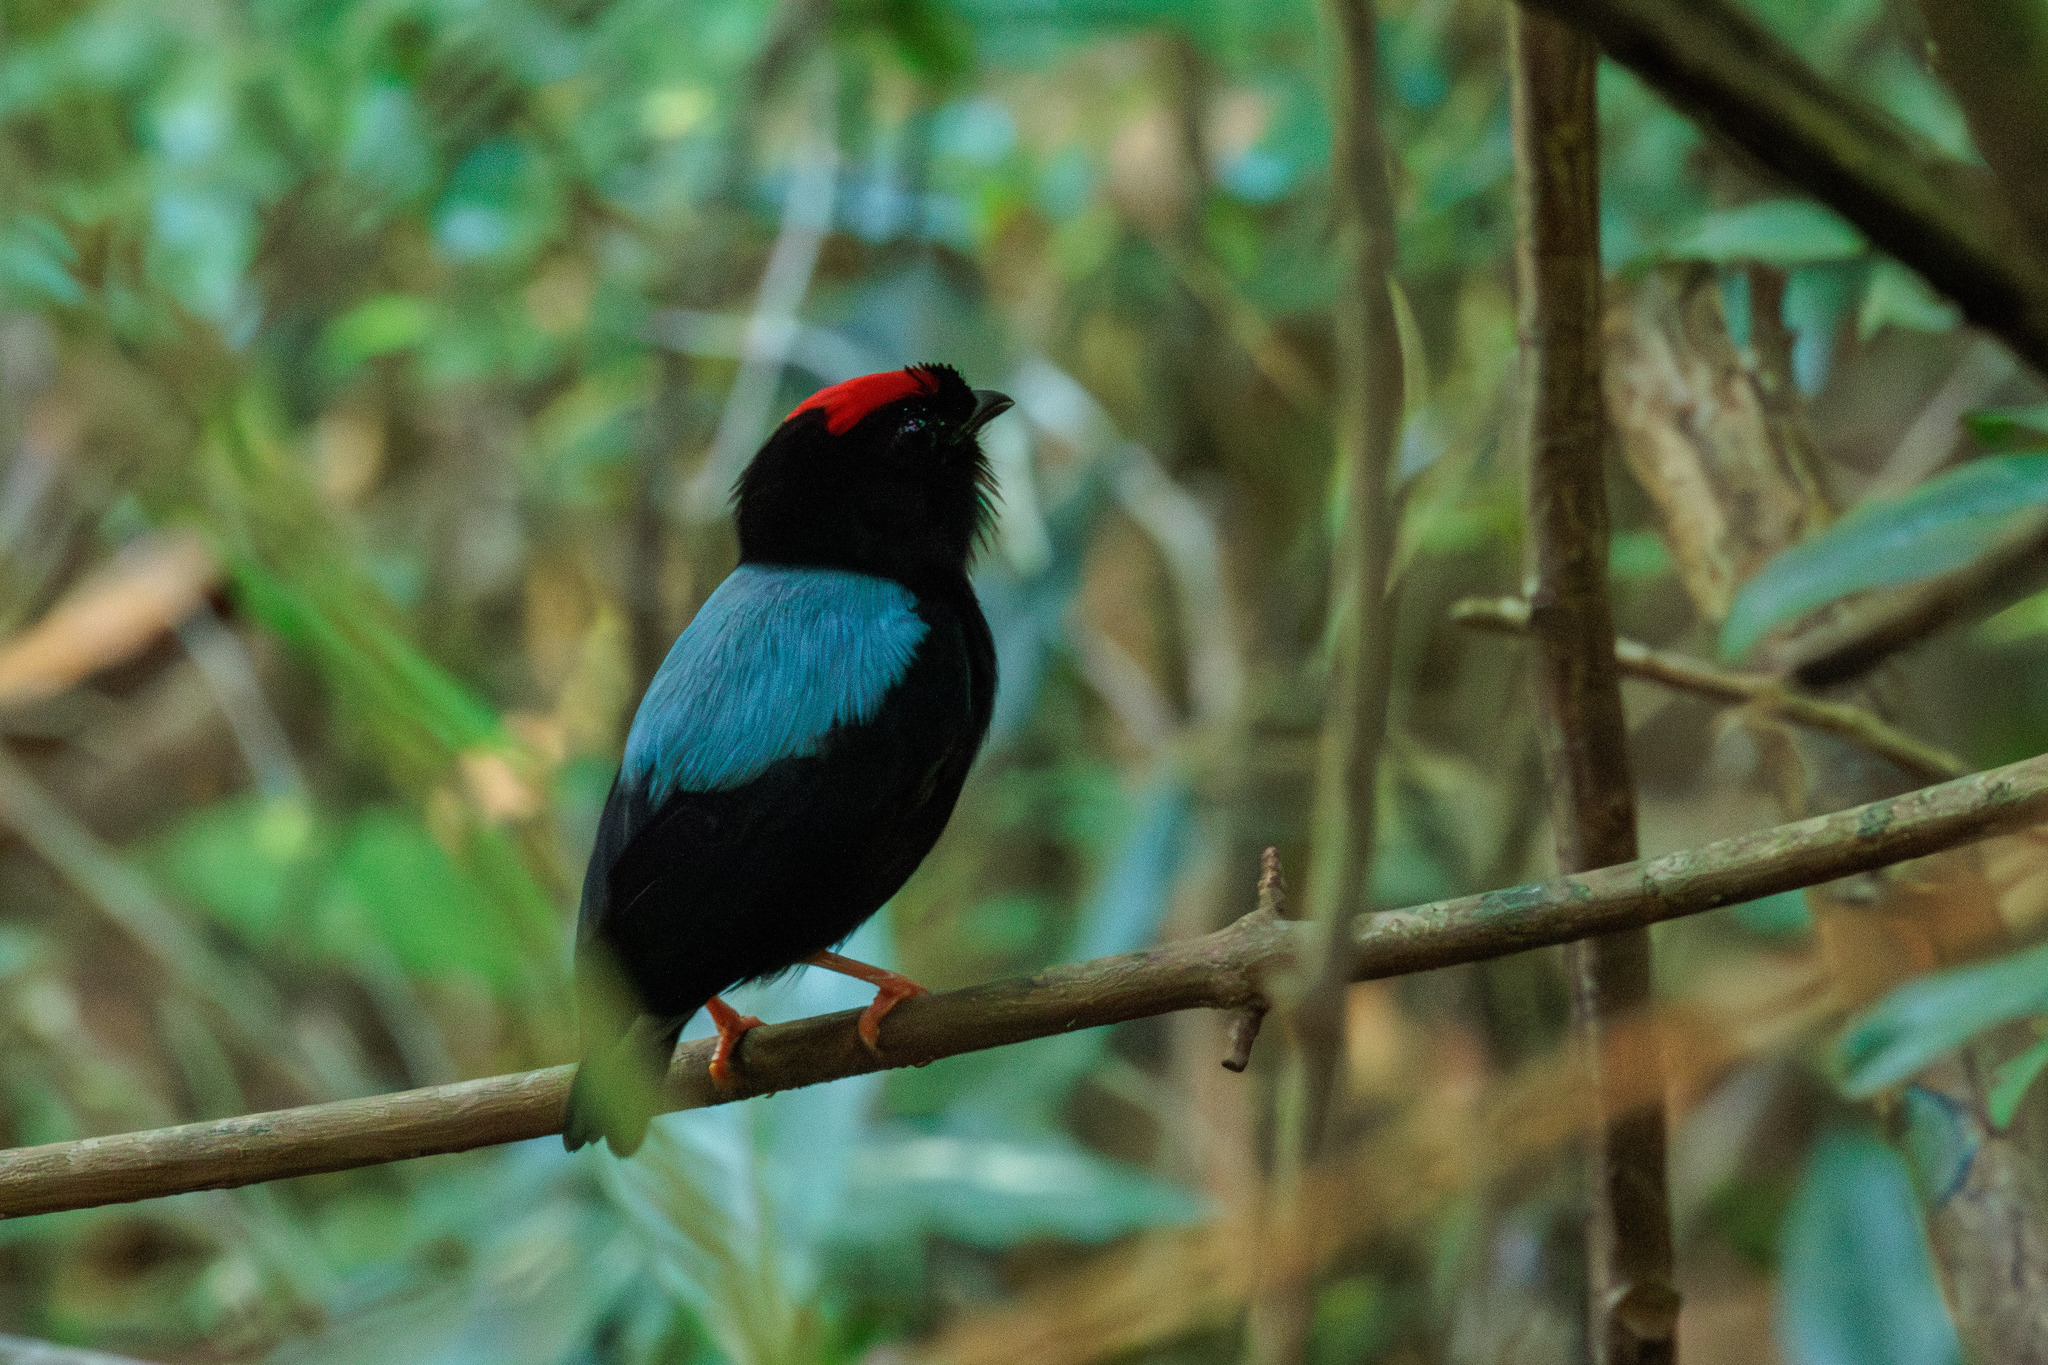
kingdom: Animalia
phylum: Chordata
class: Aves
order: Passeriformes
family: Pipridae
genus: Chiroxiphia
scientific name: Chiroxiphia pareola
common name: Blue-backed manakin
